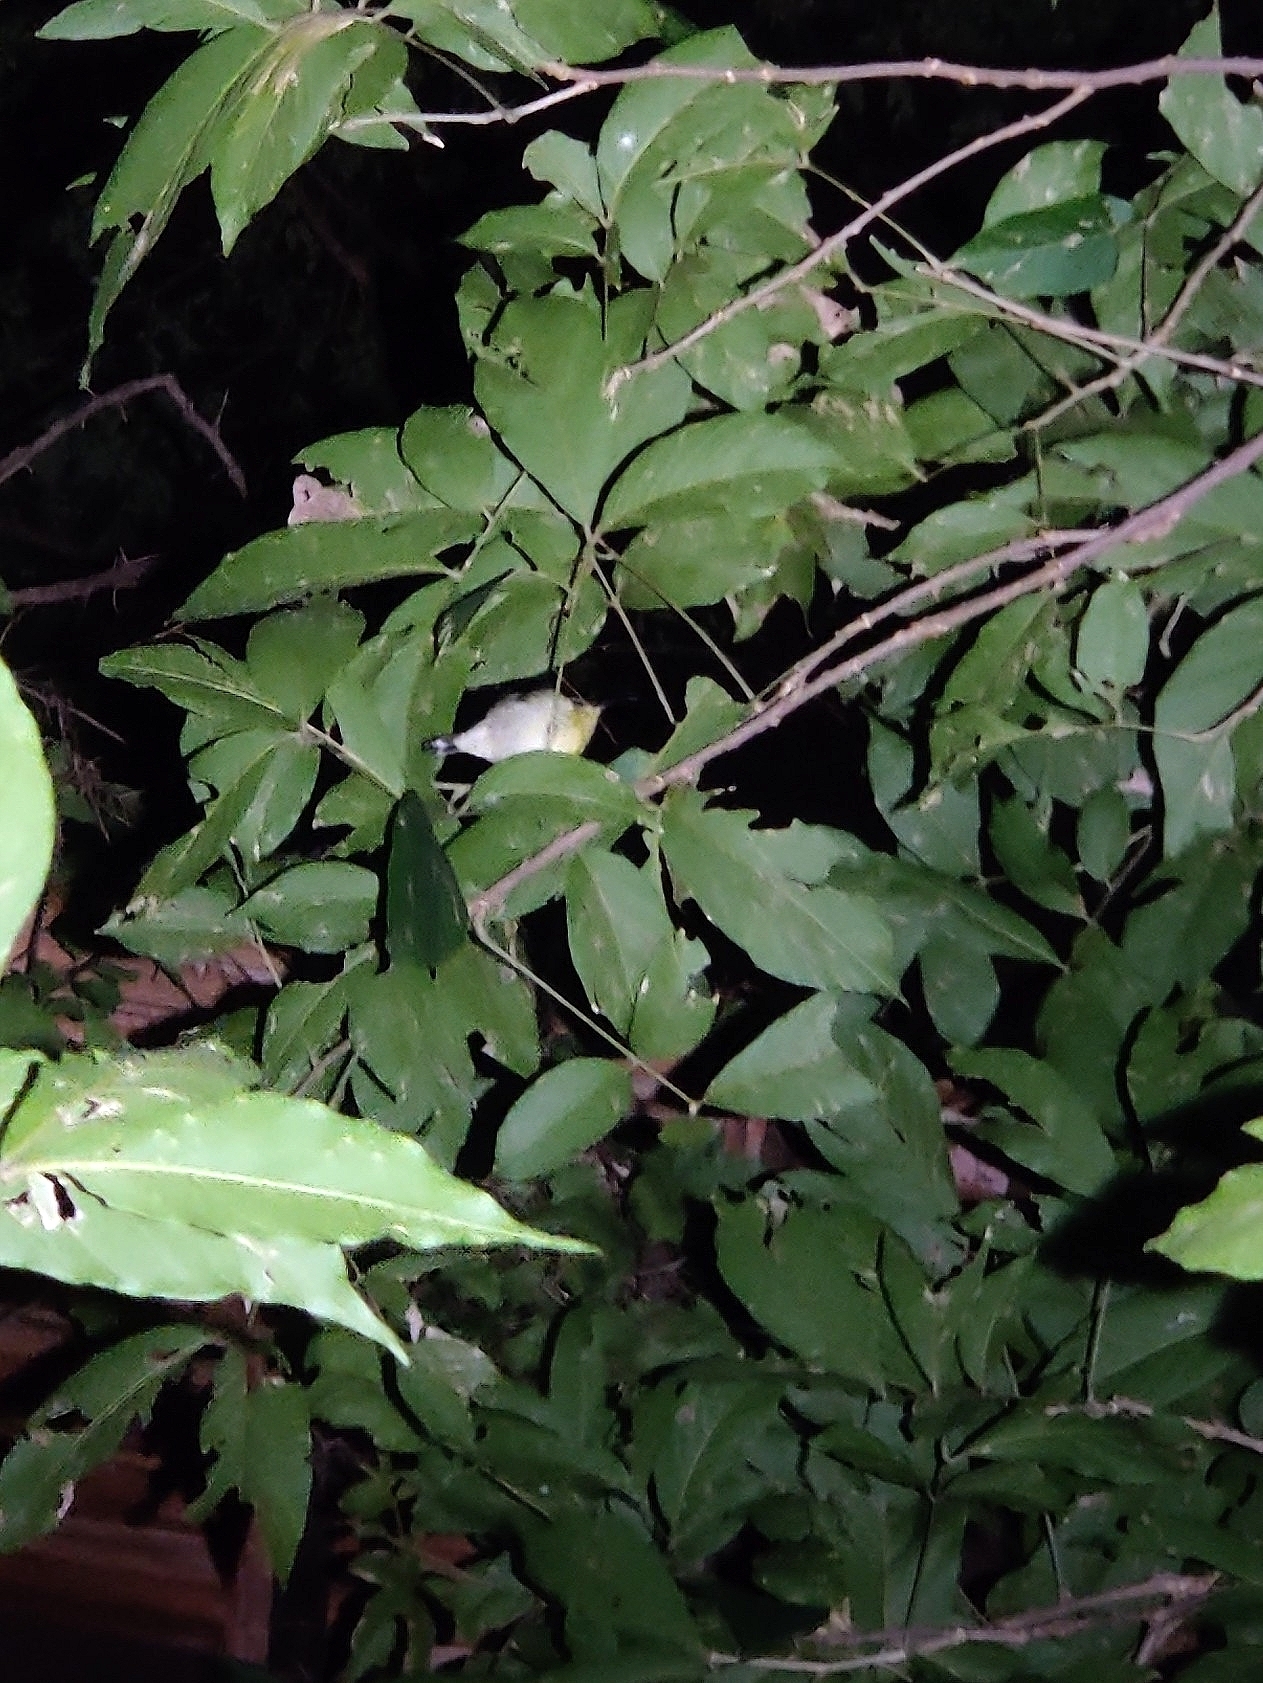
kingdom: Animalia
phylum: Chordata
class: Aves
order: Passeriformes
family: Nectariniidae
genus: Leptocoma
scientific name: Leptocoma zeylonica
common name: Purple-rumped sunbird
